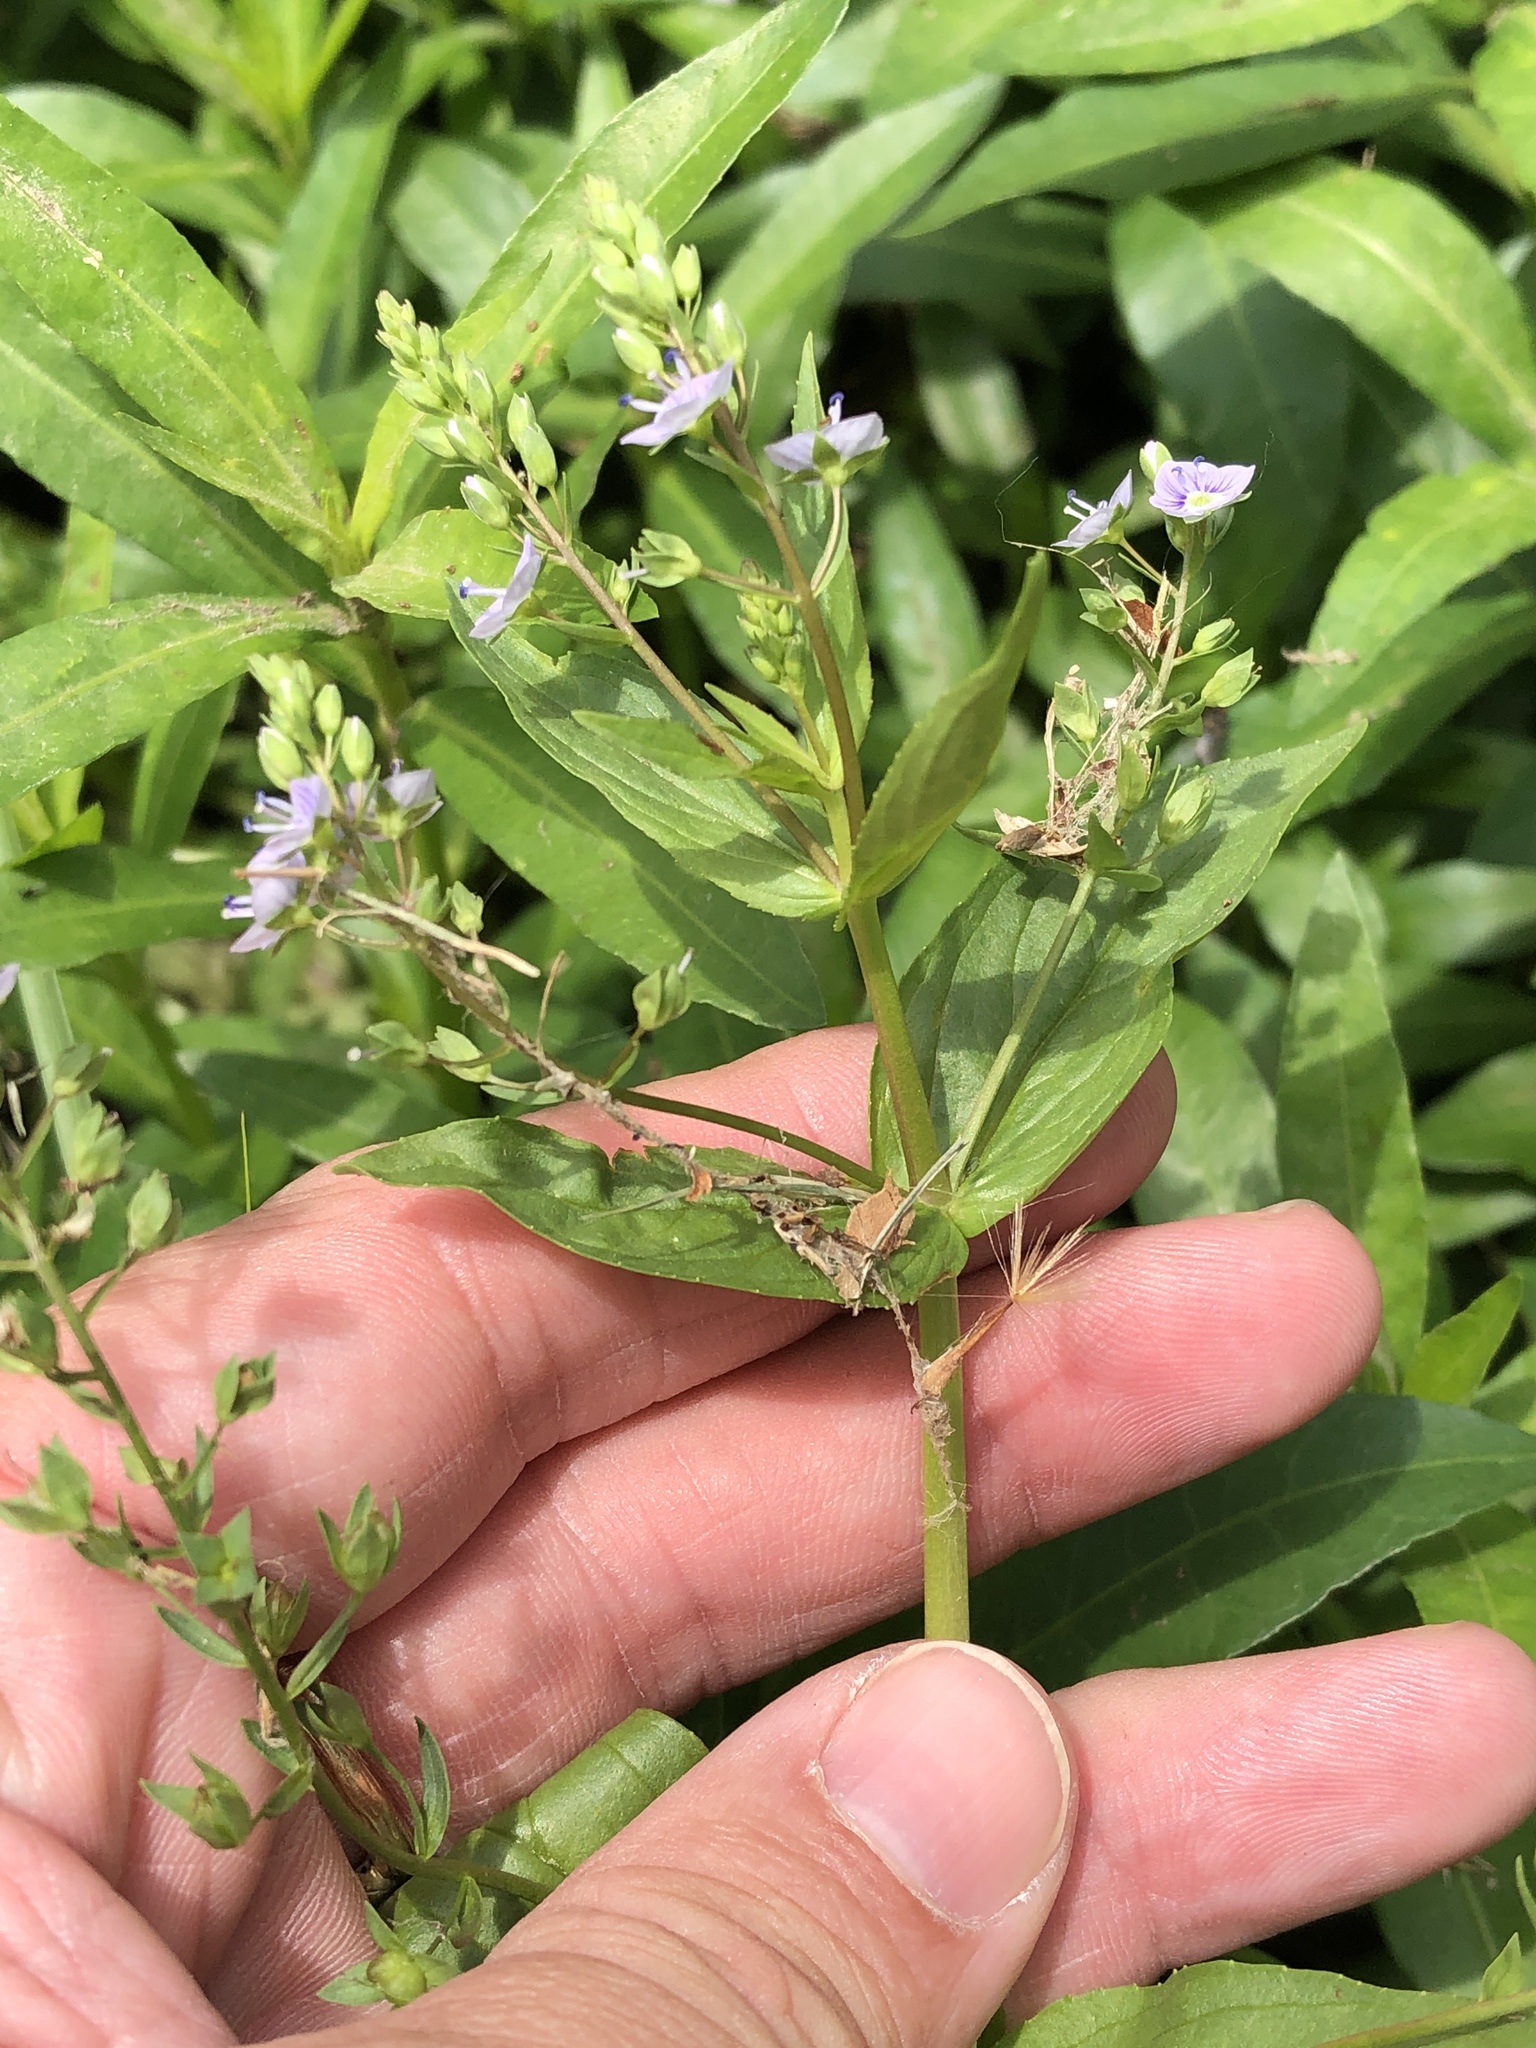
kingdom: Plantae
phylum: Tracheophyta
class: Magnoliopsida
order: Lamiales
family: Plantaginaceae
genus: Veronica
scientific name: Veronica anagallis-aquatica
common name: Water speedwell
